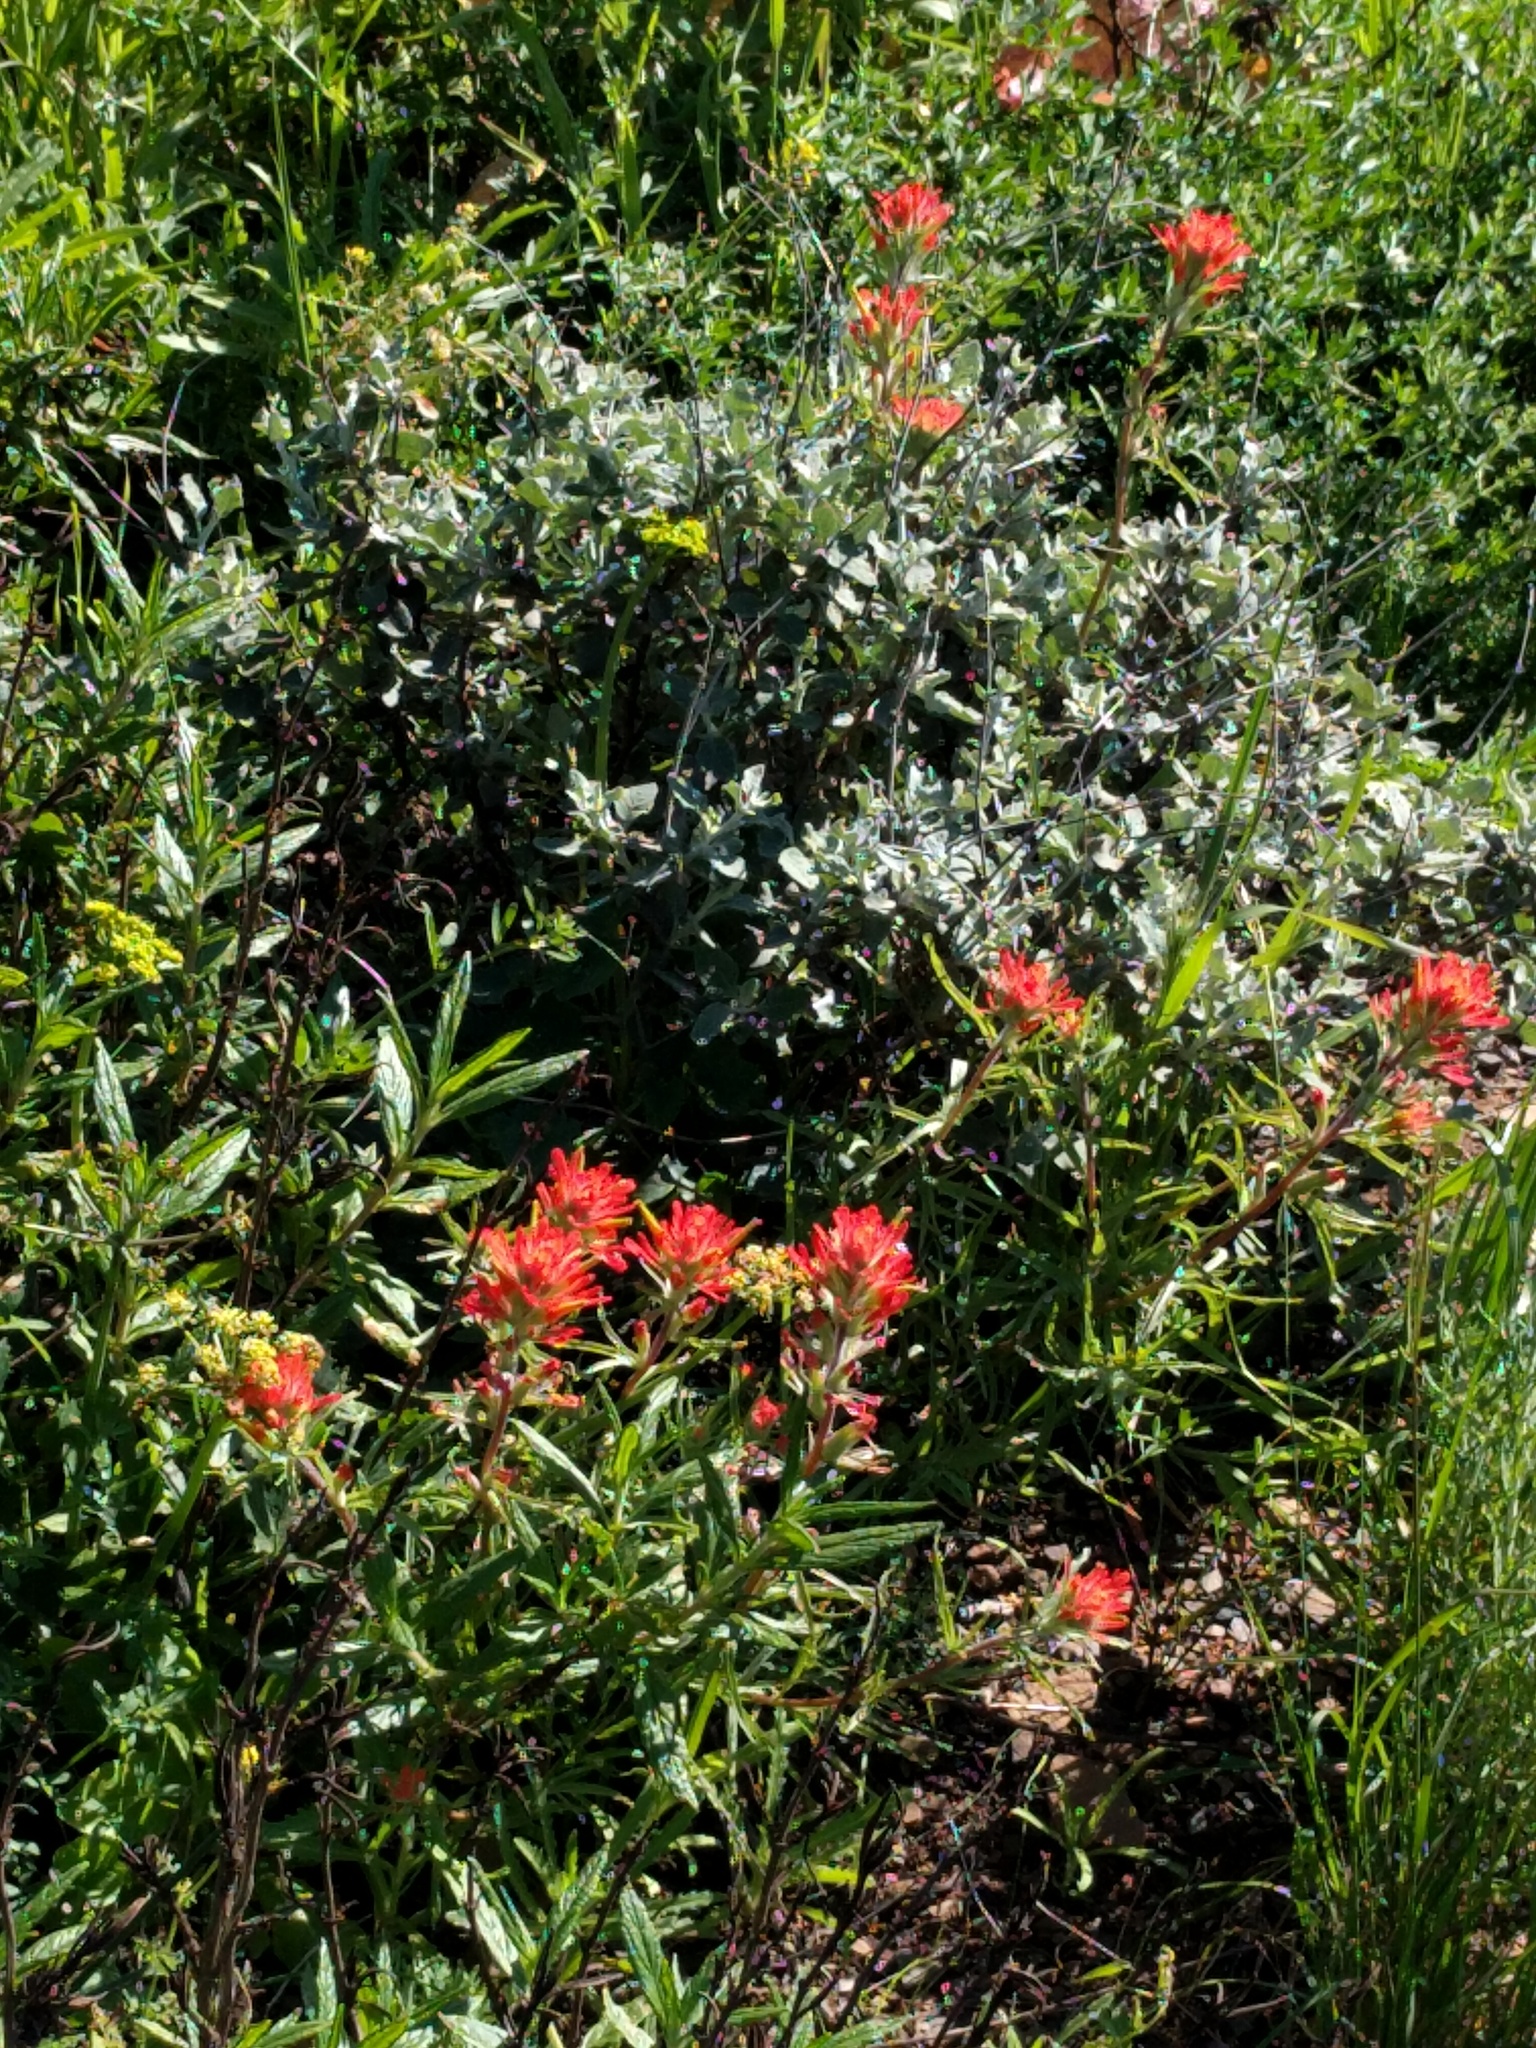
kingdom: Plantae
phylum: Tracheophyta
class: Magnoliopsida
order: Lamiales
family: Orobanchaceae
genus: Castilleja
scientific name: Castilleja affinis
